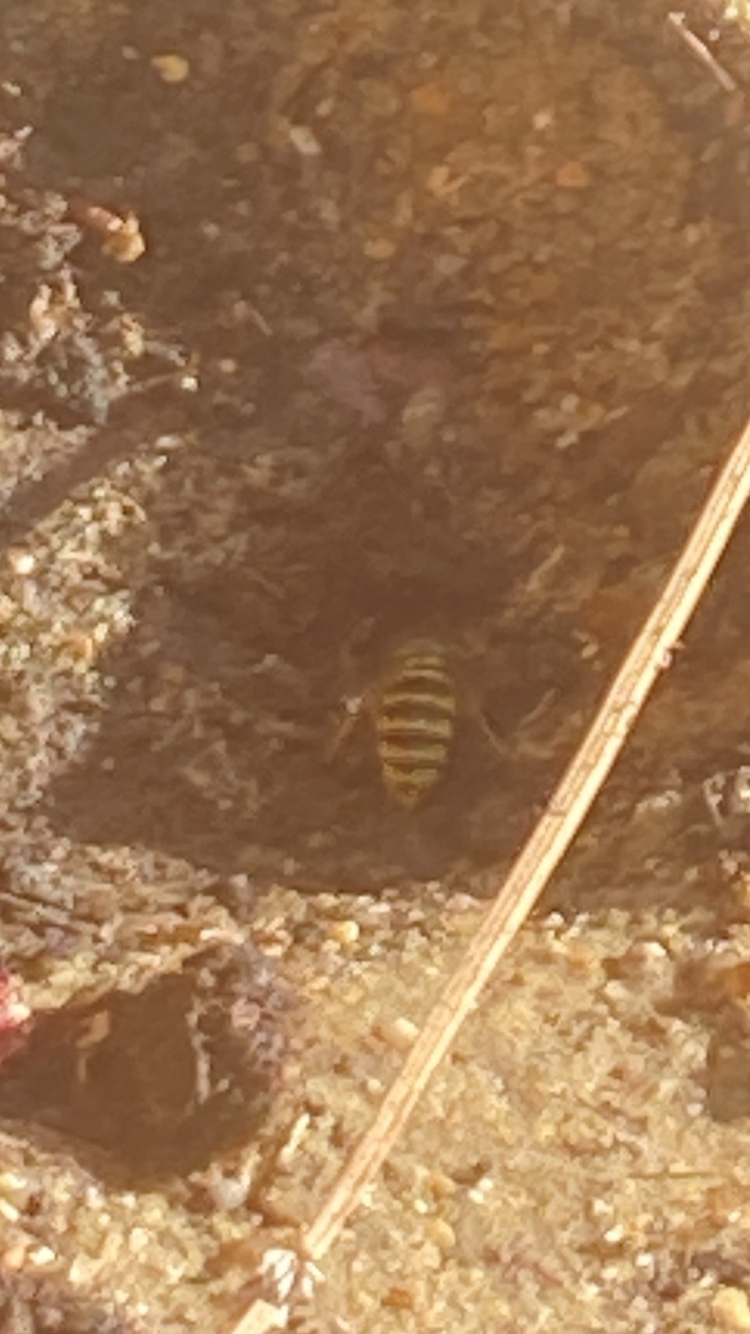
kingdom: Animalia
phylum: Arthropoda
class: Insecta
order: Hymenoptera
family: Vespidae
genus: Vespula
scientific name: Vespula vulgaris
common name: Common wasp
